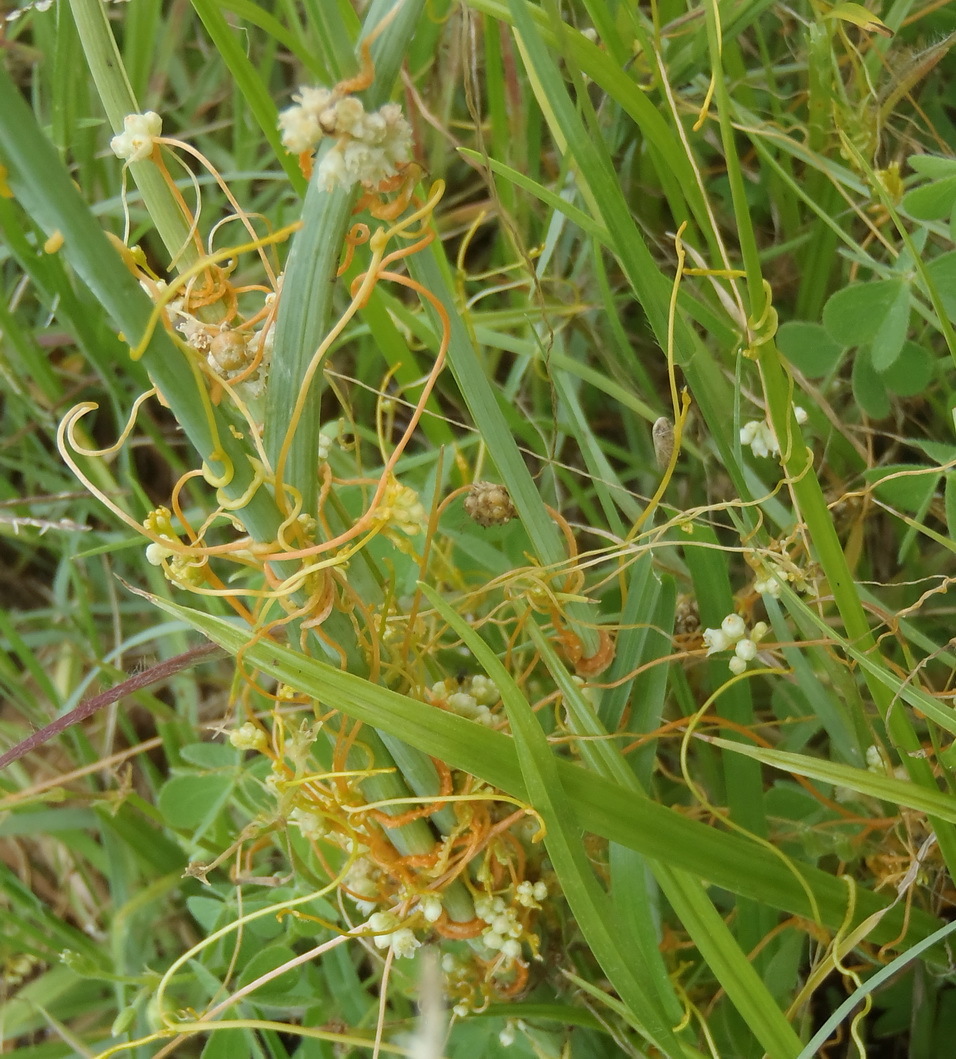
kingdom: Plantae
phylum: Tracheophyta
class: Magnoliopsida
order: Solanales
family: Convolvulaceae
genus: Cuscuta
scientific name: Cuscuta campestris
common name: Yellow dodder
